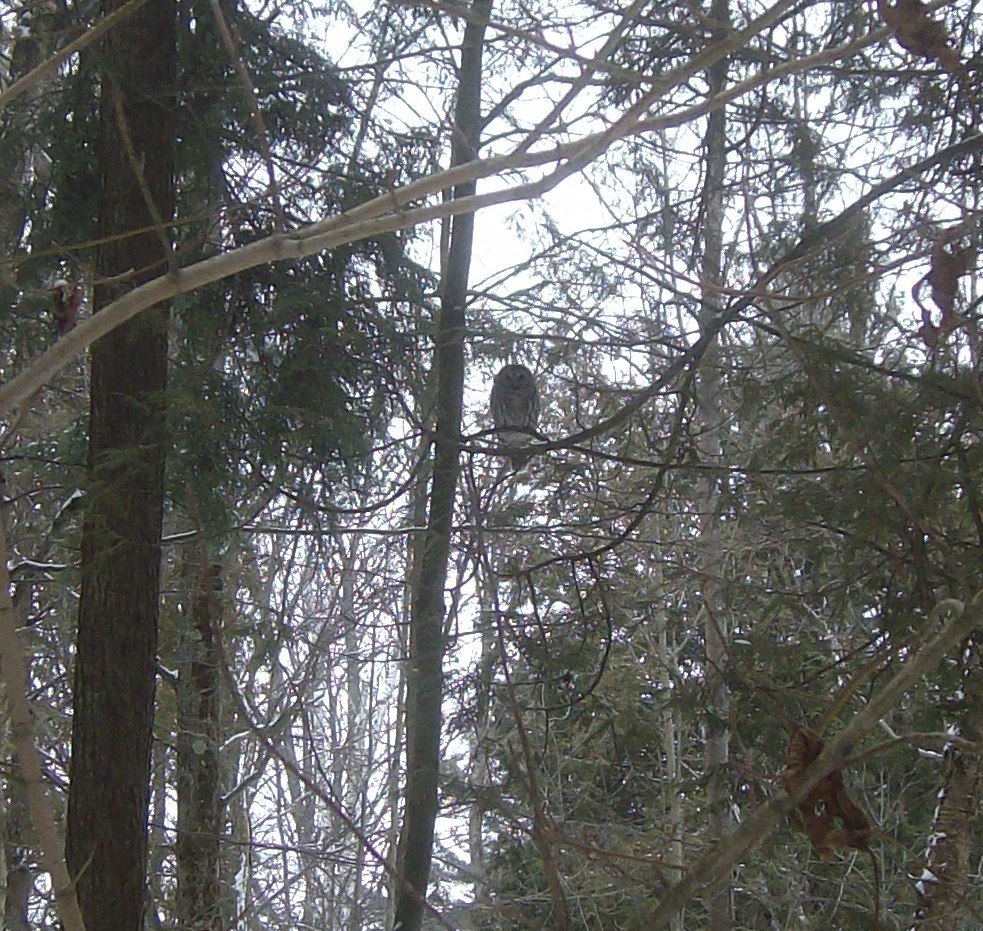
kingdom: Animalia
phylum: Chordata
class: Aves
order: Strigiformes
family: Strigidae
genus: Strix
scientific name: Strix varia
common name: Barred owl
